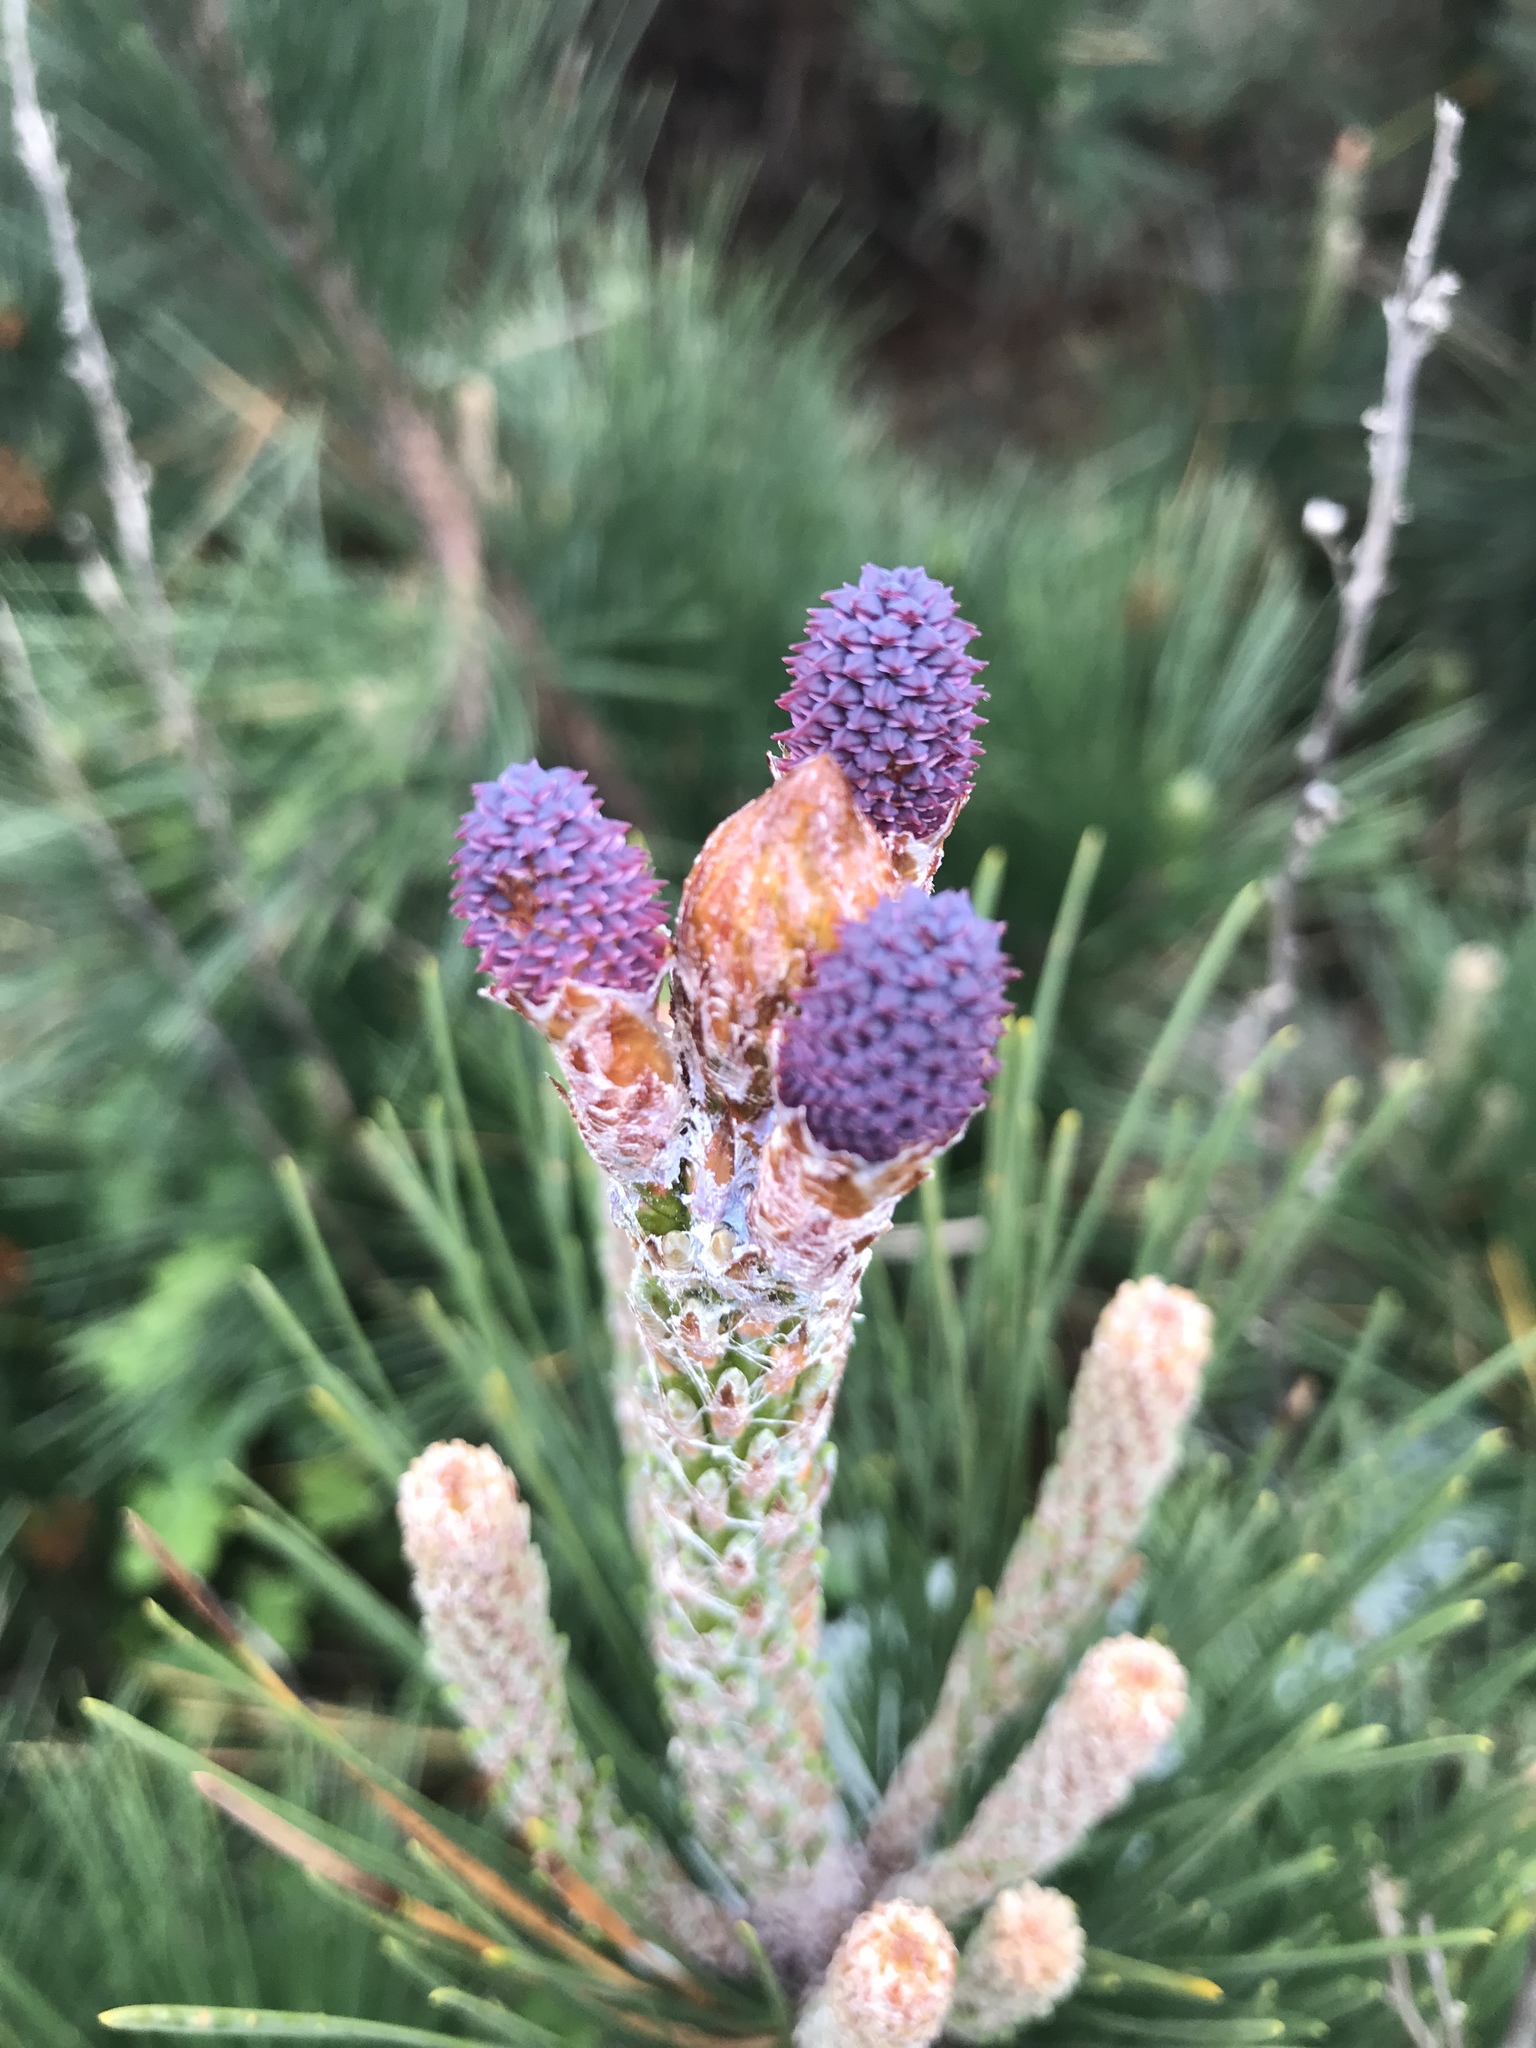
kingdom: Plantae
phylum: Tracheophyta
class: Pinopsida
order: Pinales
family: Pinaceae
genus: Pinus
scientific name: Pinus radiata
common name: Monterey pine
